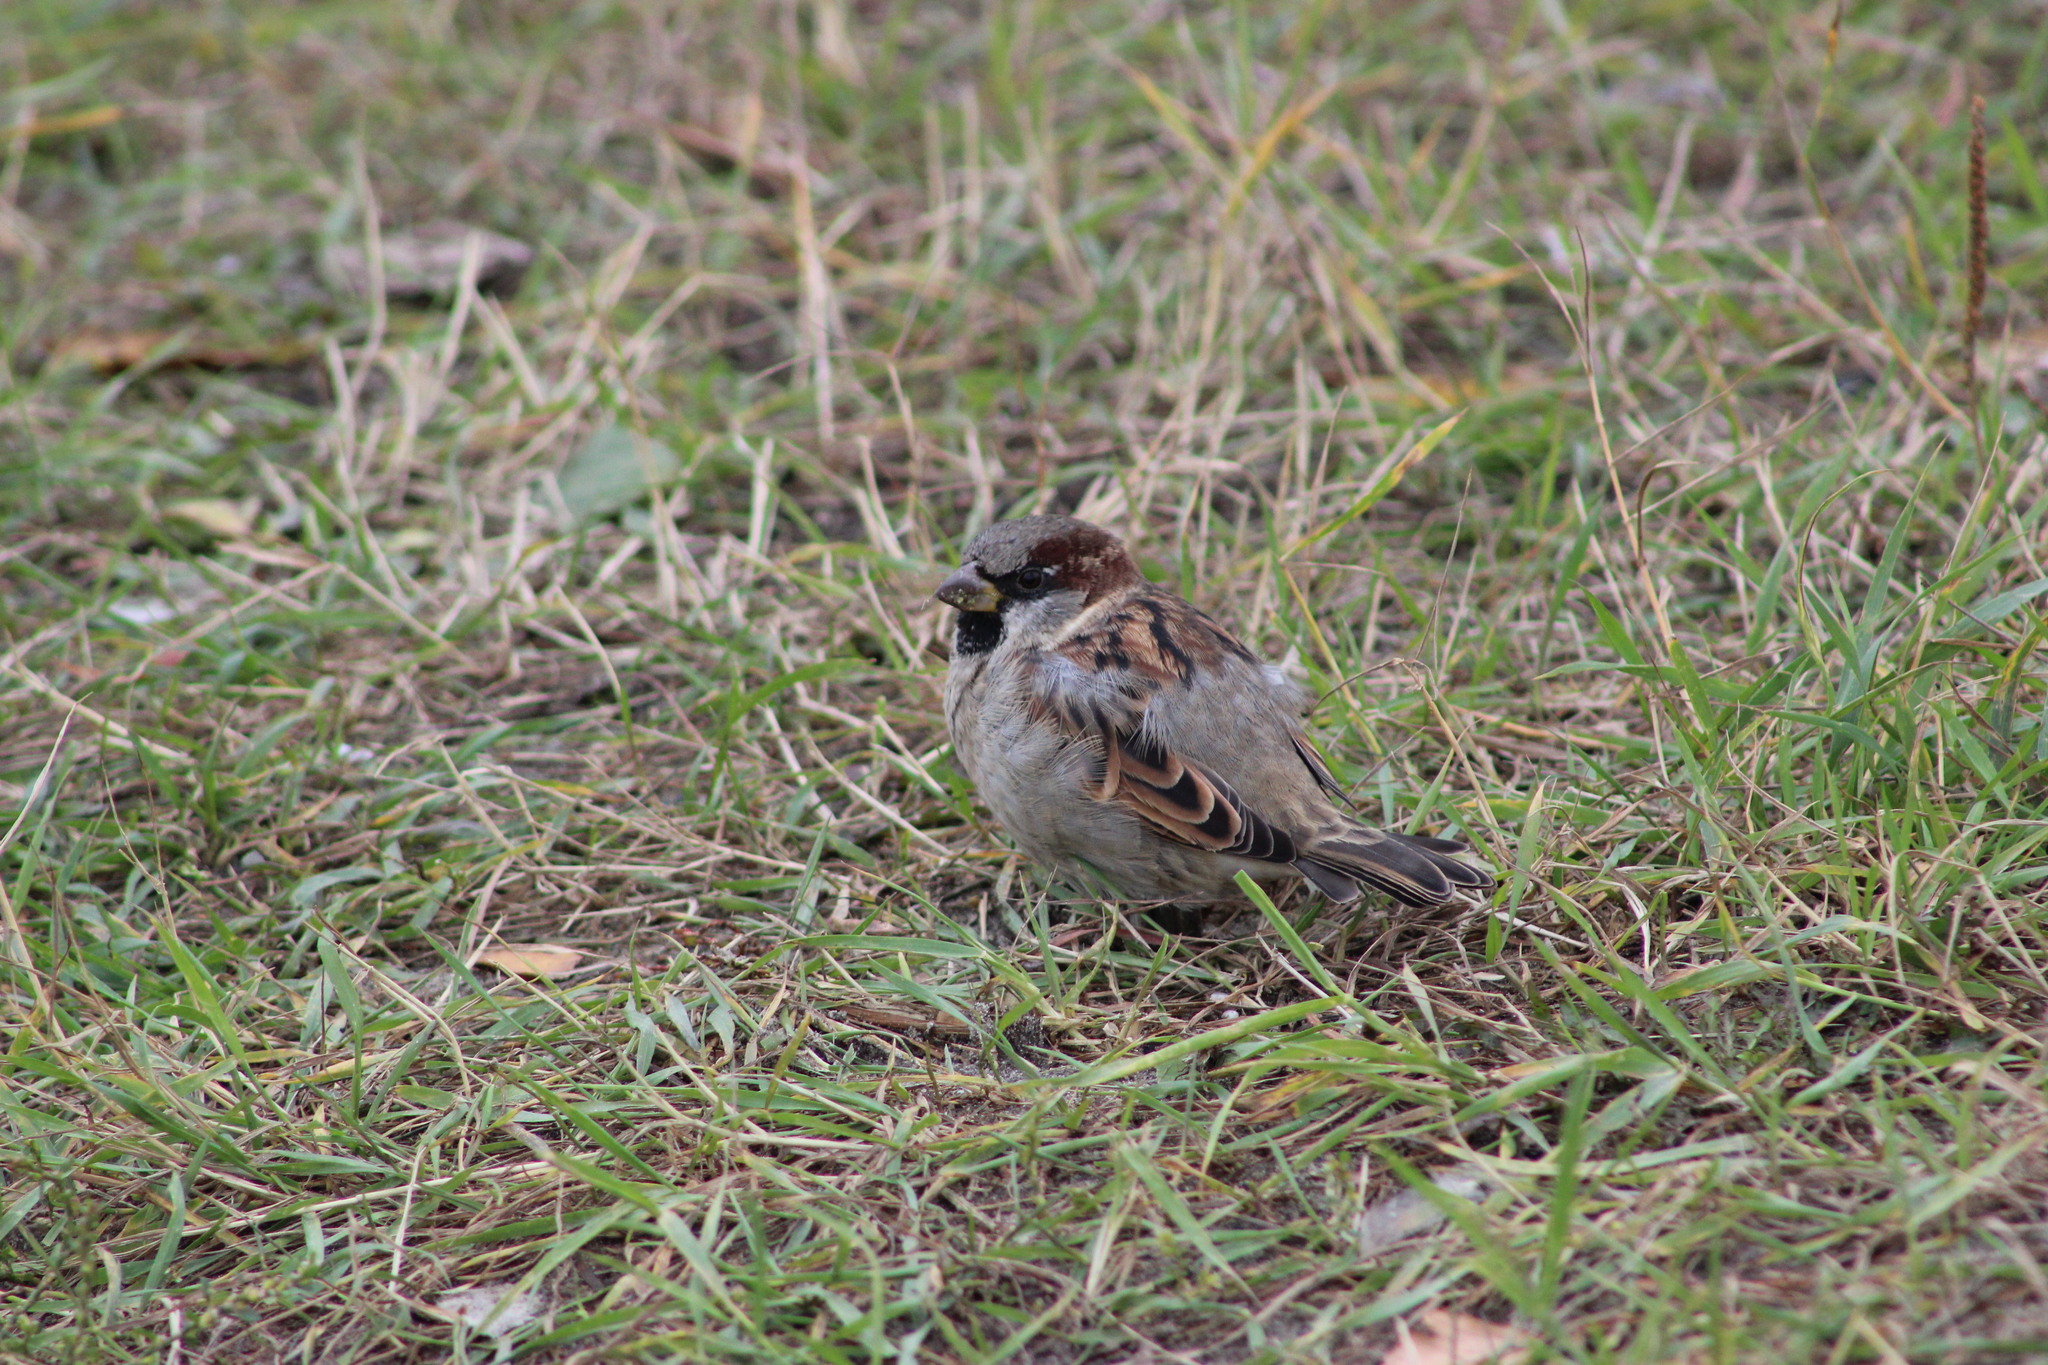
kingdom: Animalia
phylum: Chordata
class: Aves
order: Passeriformes
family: Passeridae
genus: Passer
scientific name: Passer domesticus
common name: House sparrow
